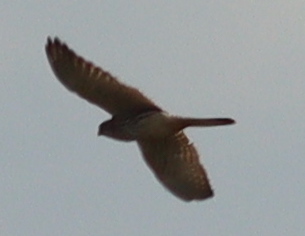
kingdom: Animalia
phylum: Chordata
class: Aves
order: Falconiformes
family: Falconidae
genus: Falco
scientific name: Falco tinnunculus
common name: Common kestrel
